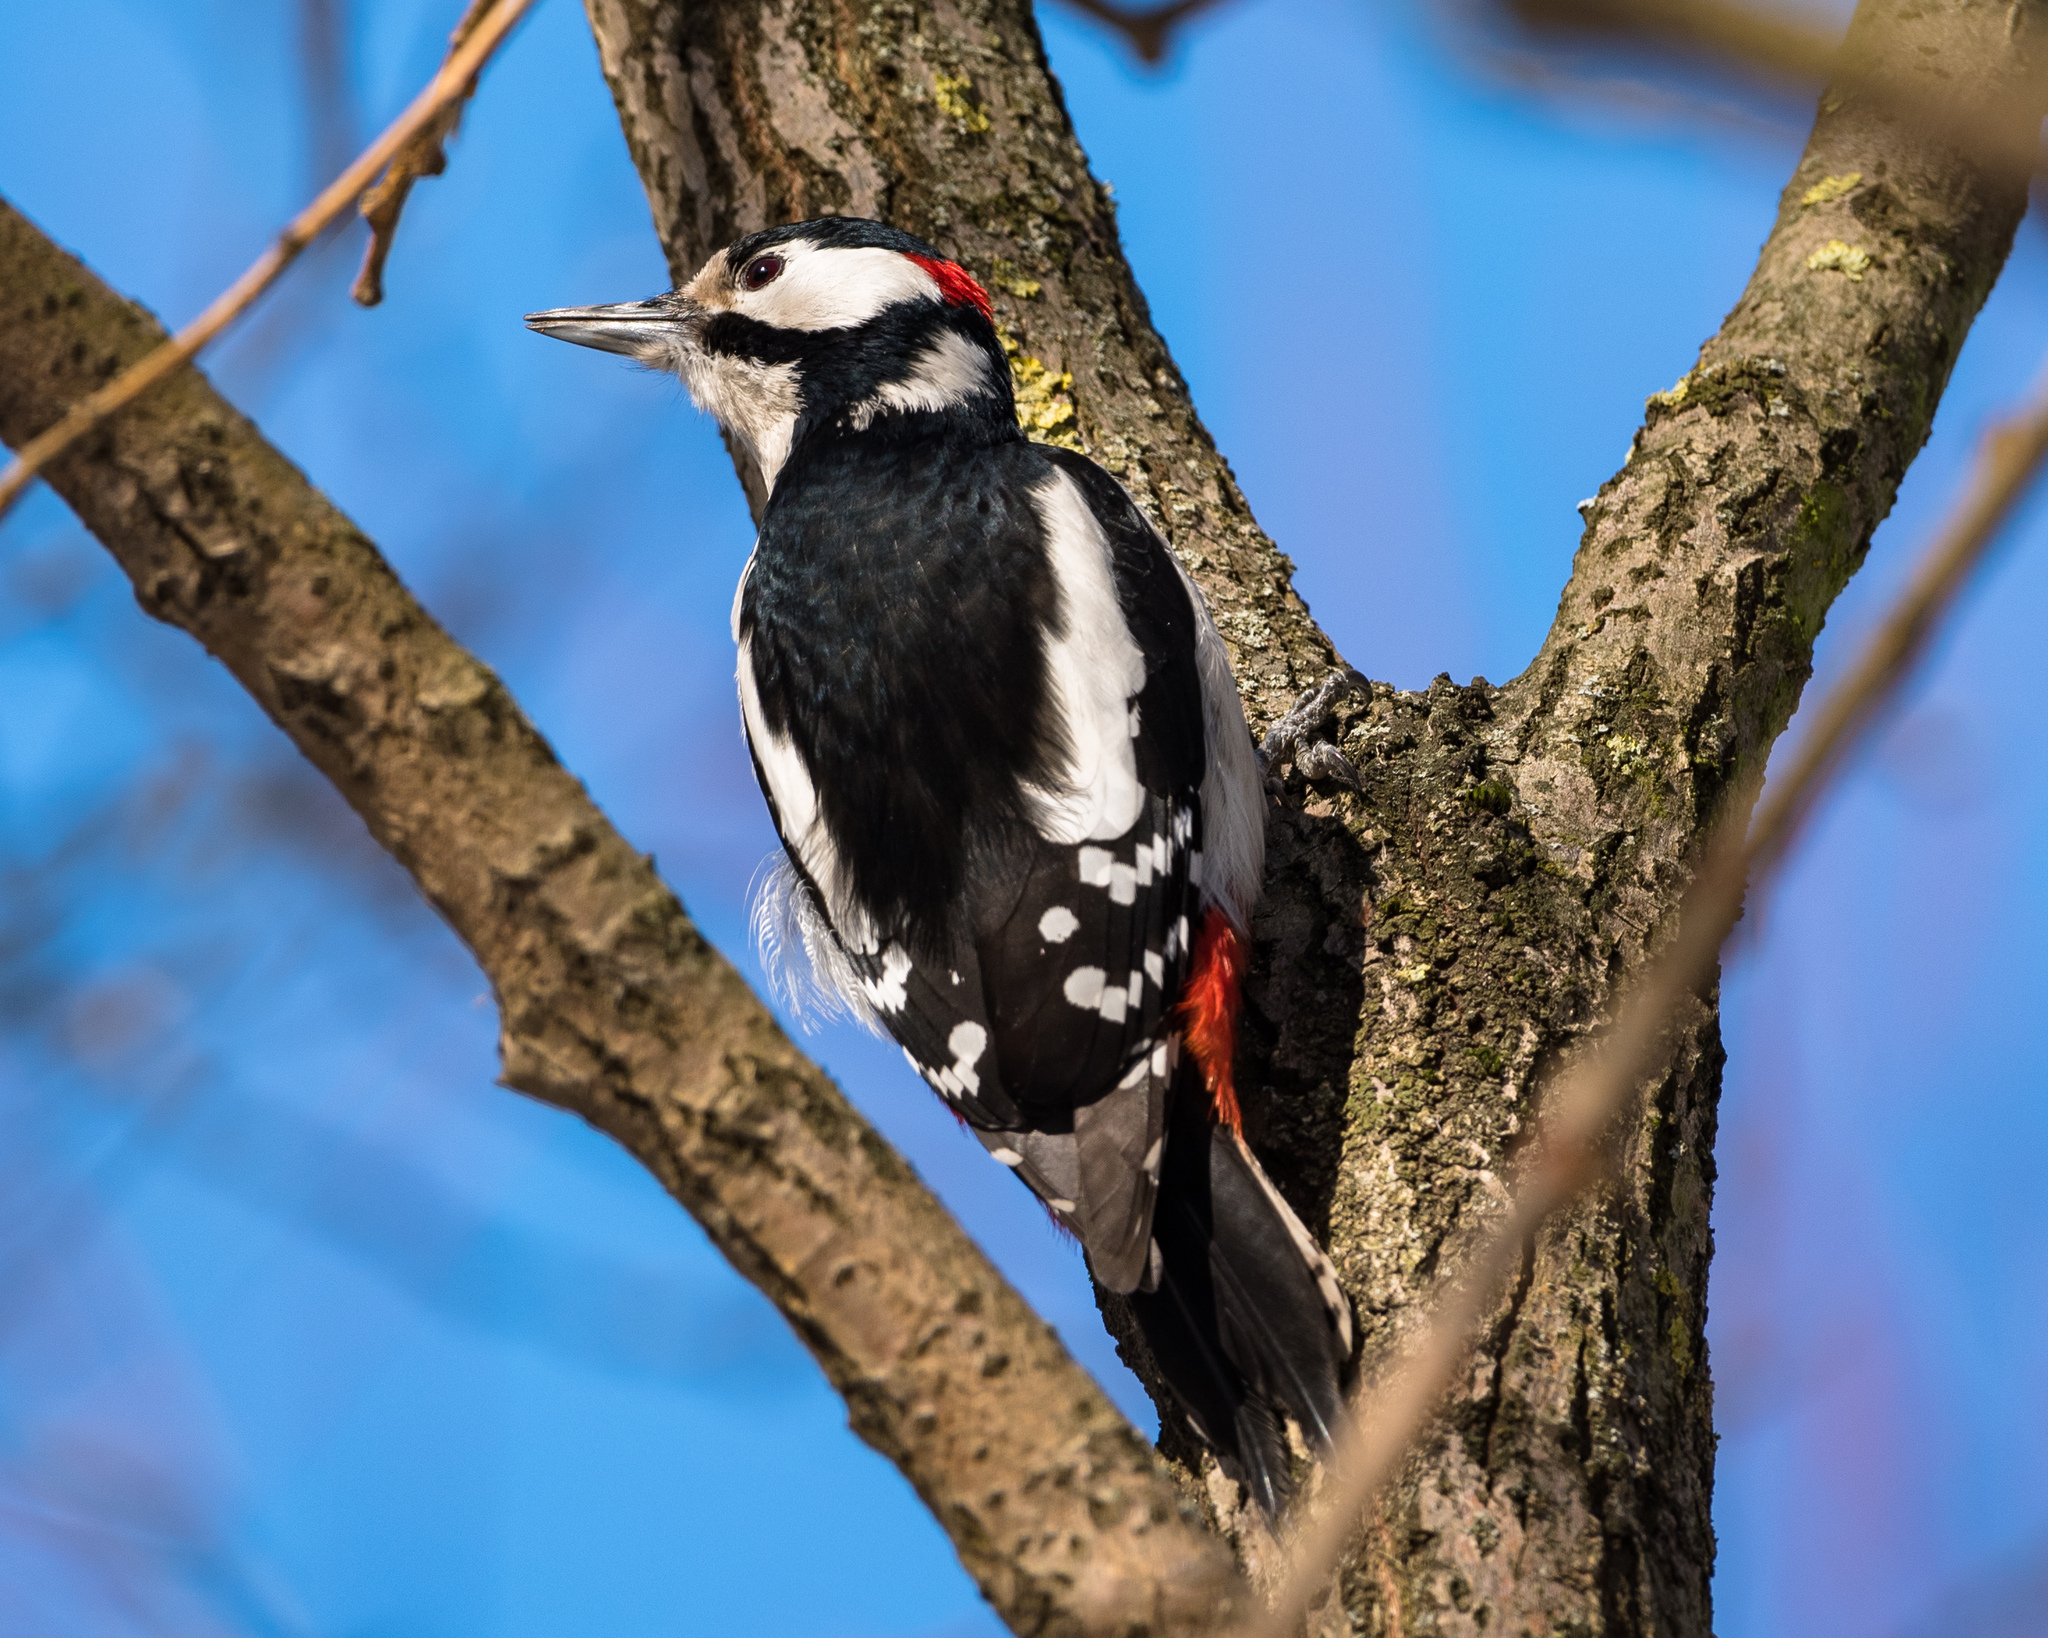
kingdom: Animalia
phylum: Chordata
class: Aves
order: Piciformes
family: Picidae
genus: Dendrocopos
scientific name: Dendrocopos major
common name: Great spotted woodpecker
